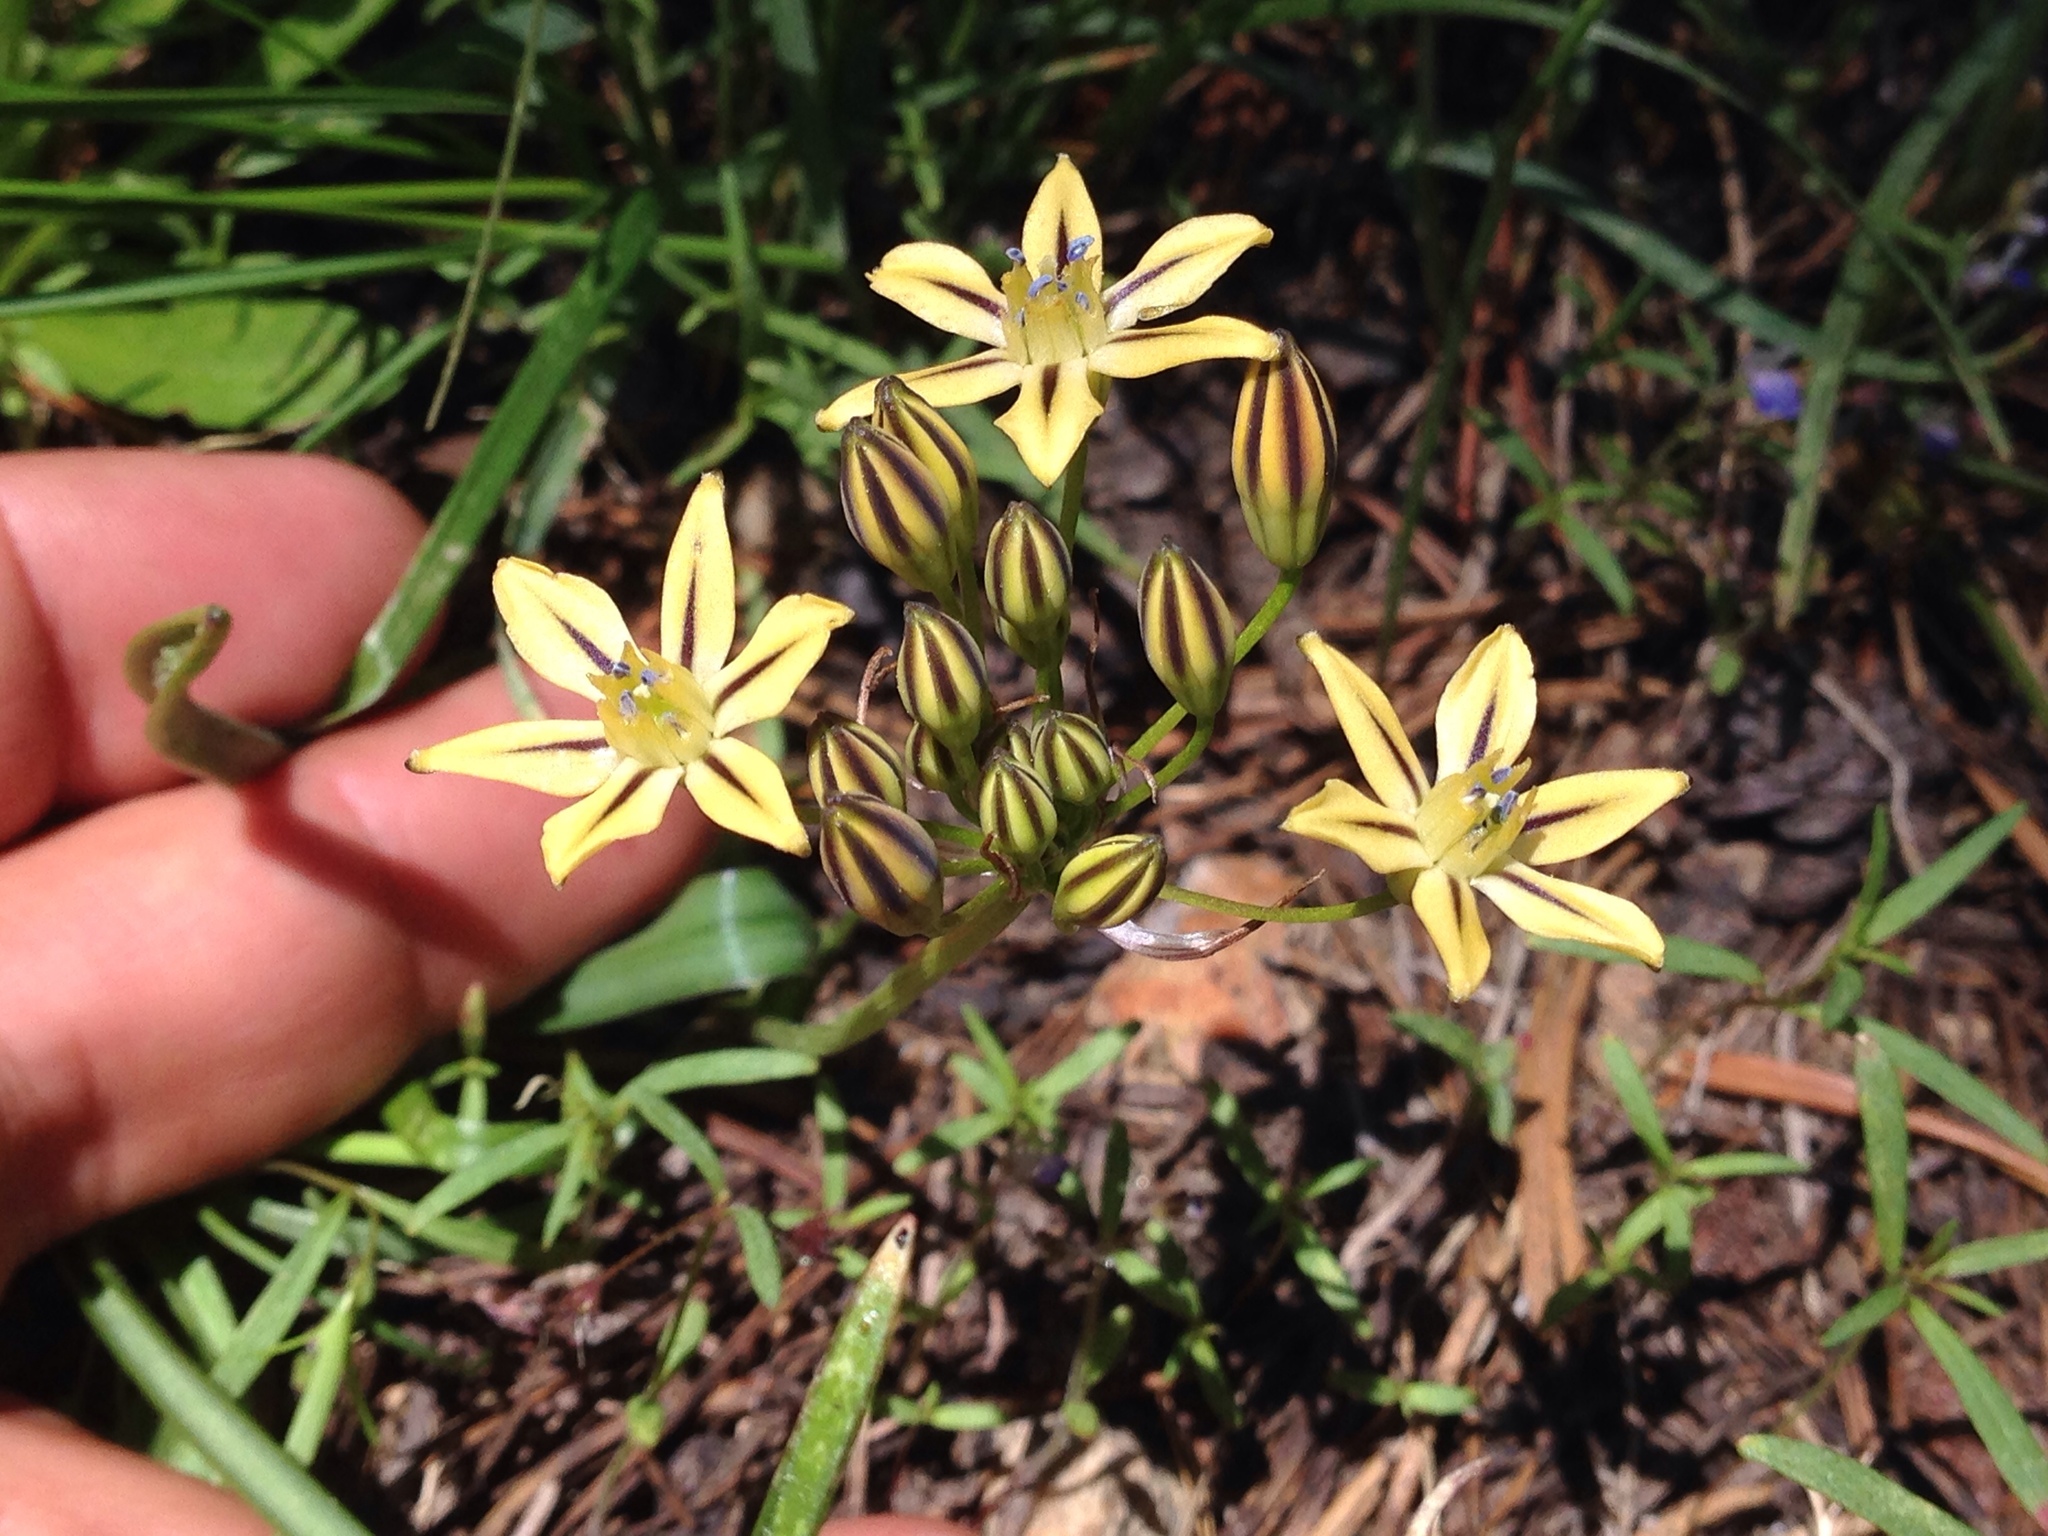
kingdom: Plantae
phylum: Tracheophyta
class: Liliopsida
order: Asparagales
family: Asparagaceae
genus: Triteleia
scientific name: Triteleia ixioides
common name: Yellow-brodiaea
